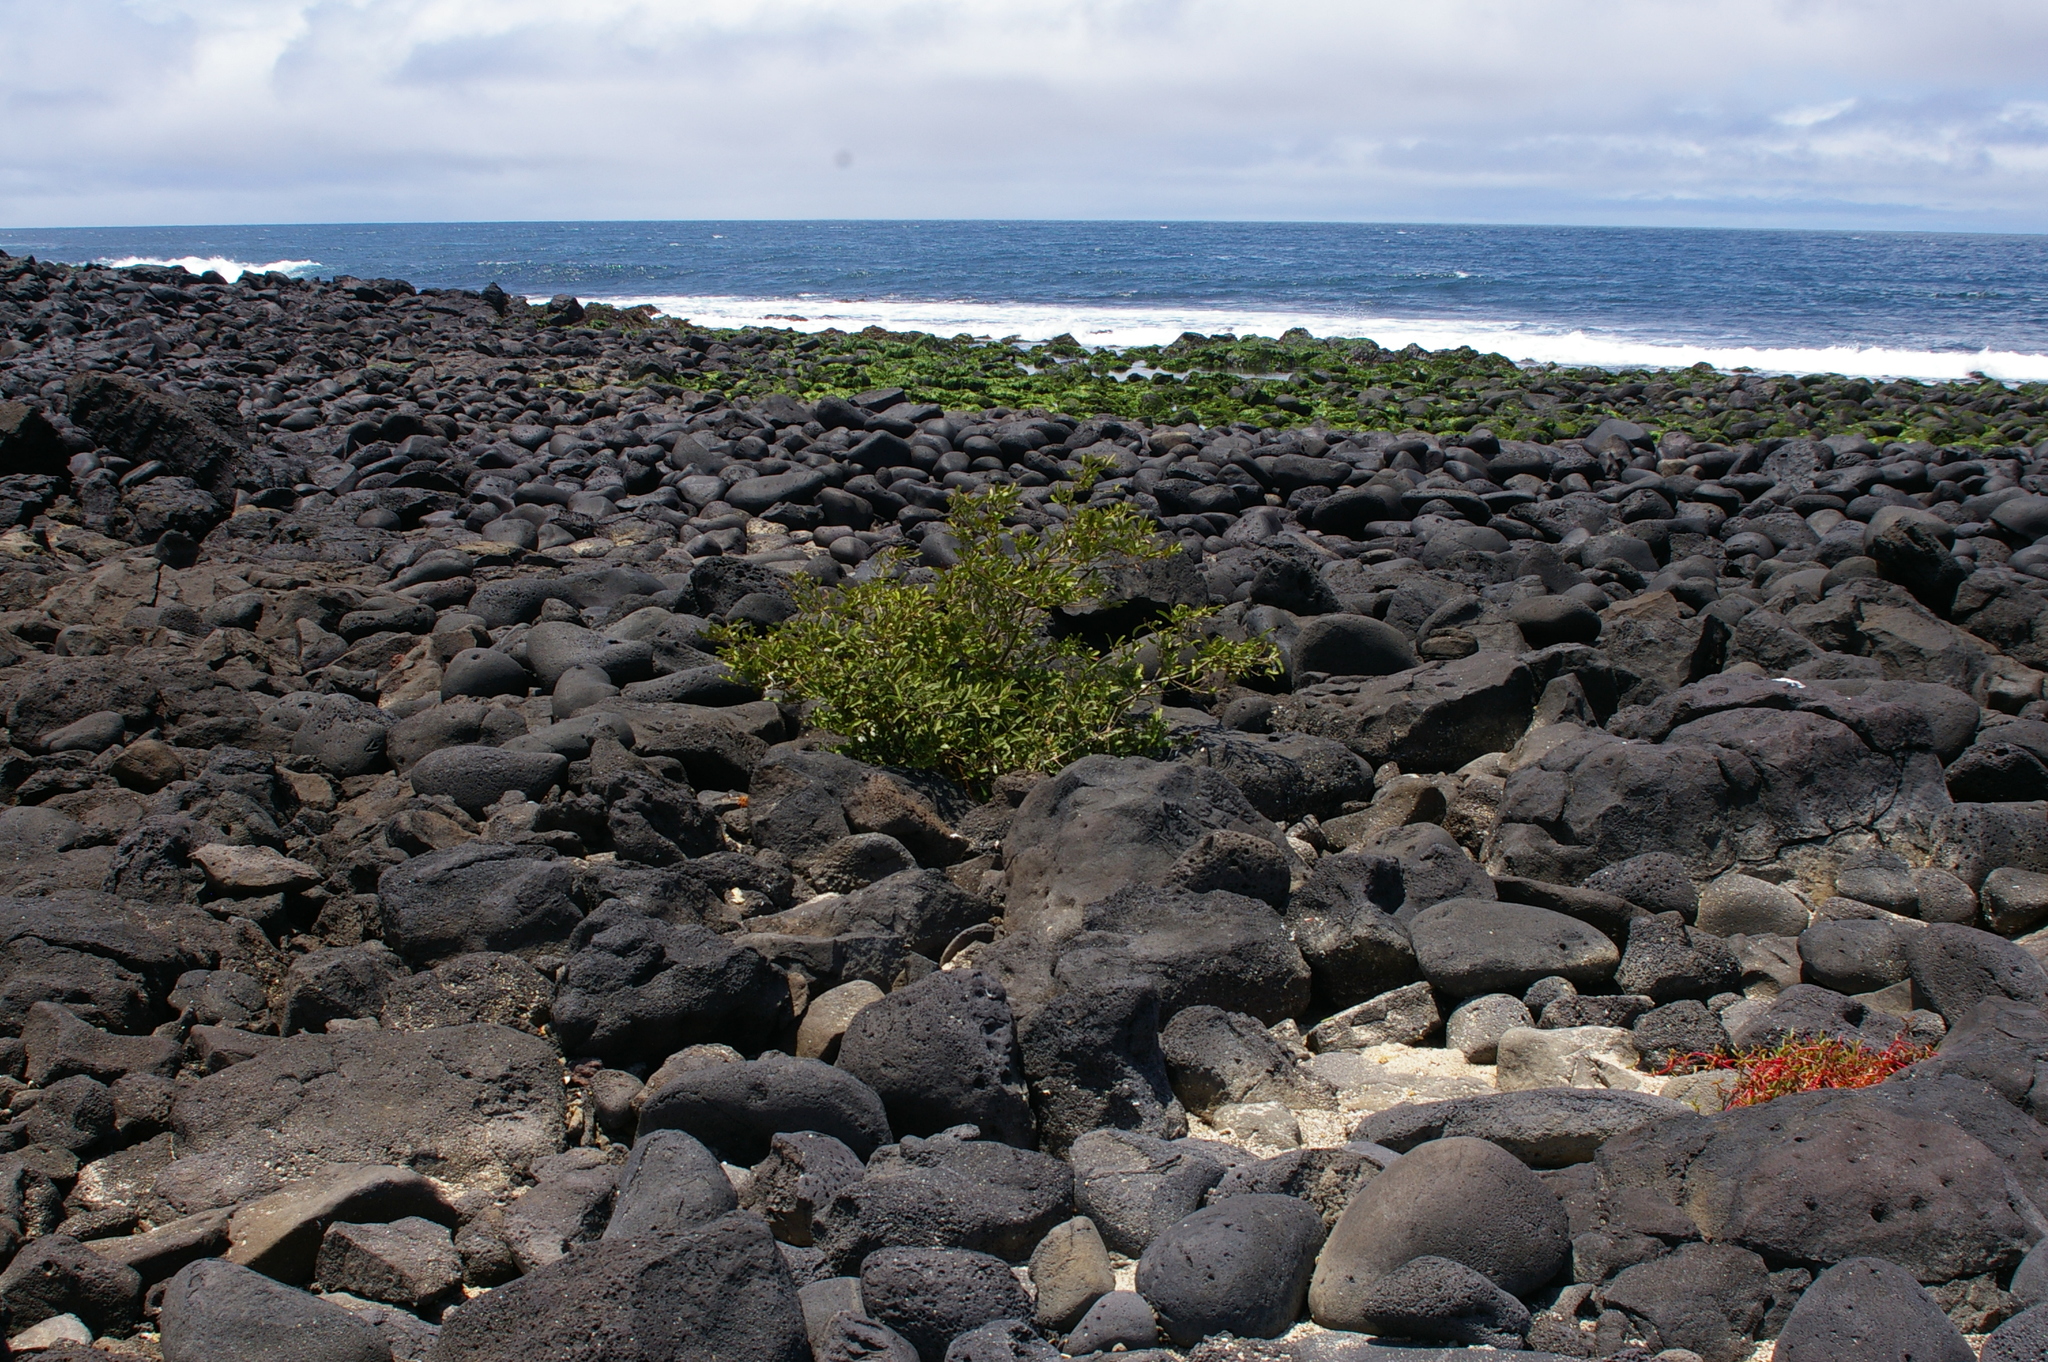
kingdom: Plantae
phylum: Tracheophyta
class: Magnoliopsida
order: Gentianales
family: Apocynaceae
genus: Vallesia
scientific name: Vallesia glabra
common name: Pearlberry
